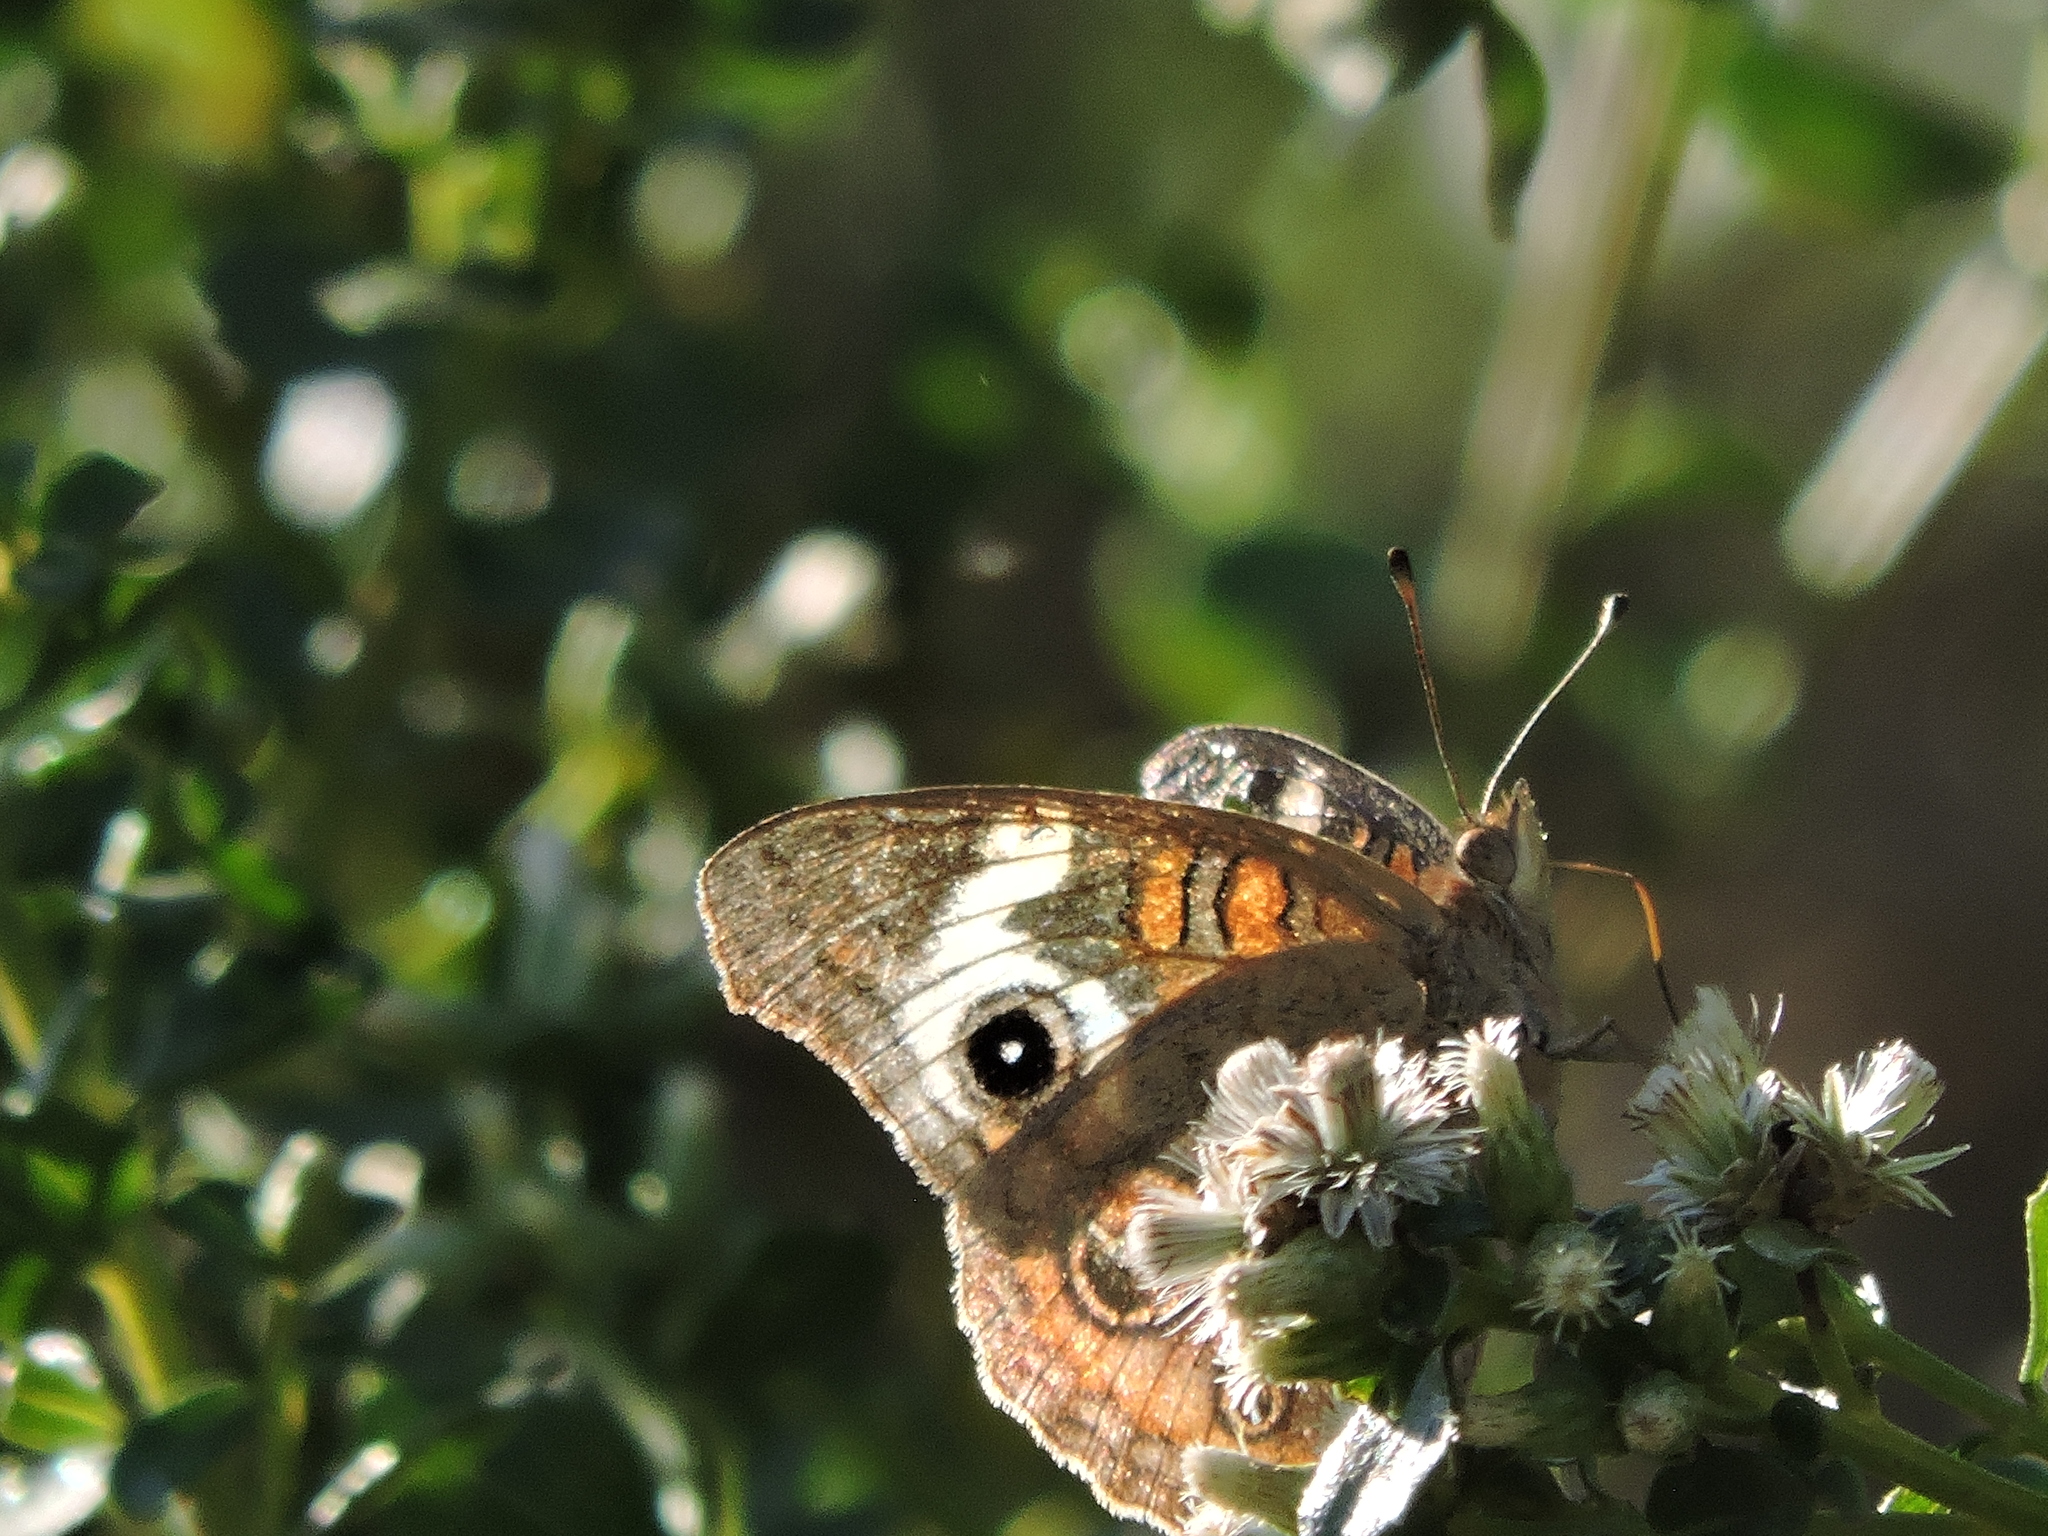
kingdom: Animalia
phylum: Arthropoda
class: Insecta
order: Lepidoptera
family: Nymphalidae
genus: Junonia
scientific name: Junonia grisea
